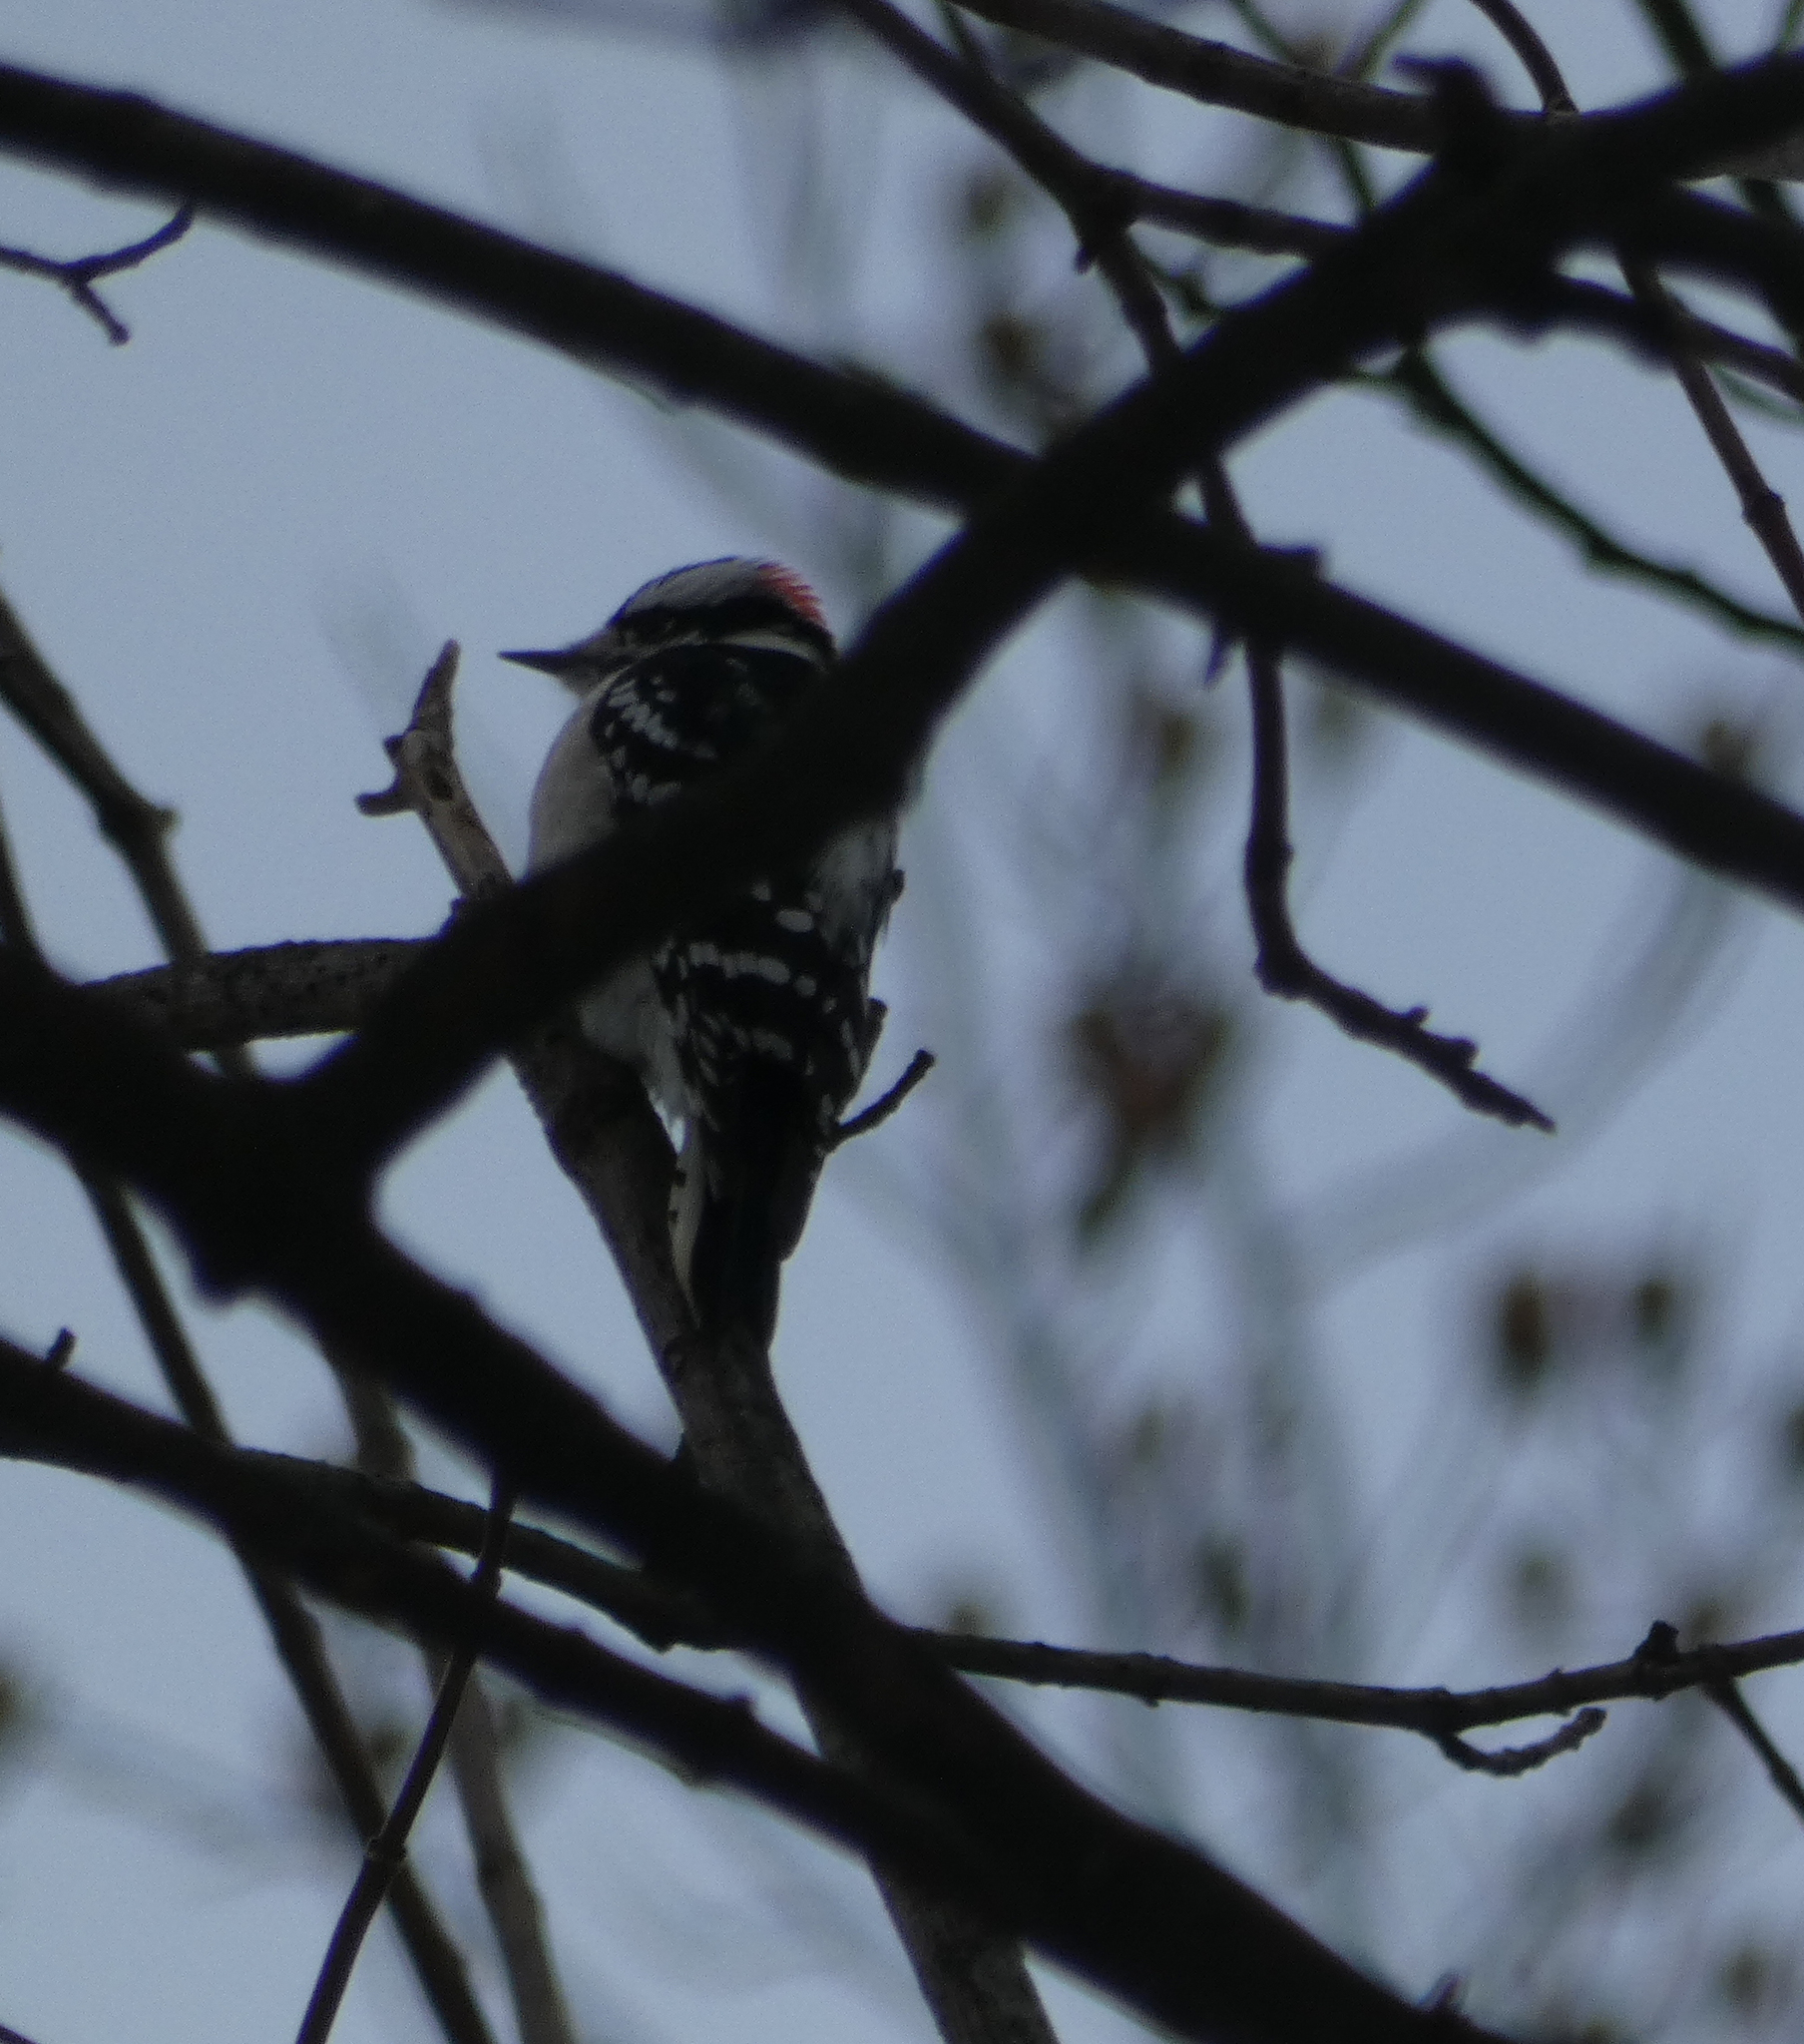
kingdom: Animalia
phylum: Chordata
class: Aves
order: Piciformes
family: Picidae
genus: Dryobates
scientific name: Dryobates pubescens
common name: Downy woodpecker
